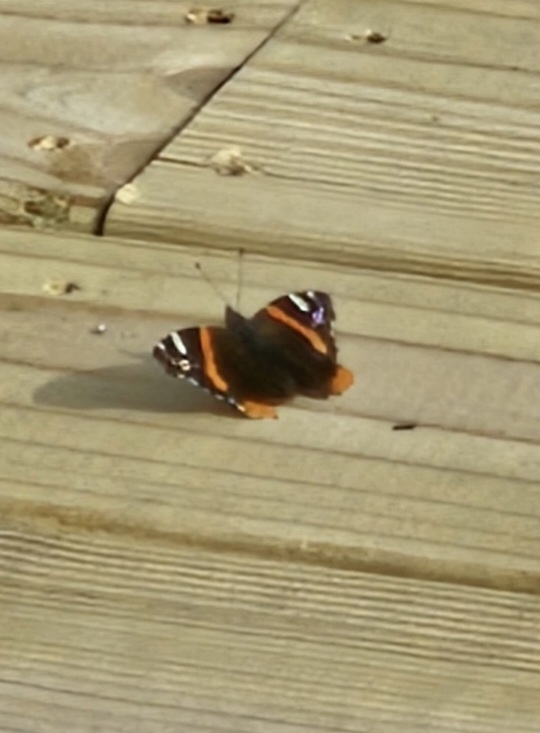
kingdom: Animalia
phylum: Arthropoda
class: Insecta
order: Lepidoptera
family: Nymphalidae
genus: Vanessa
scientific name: Vanessa atalanta
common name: Red admiral
